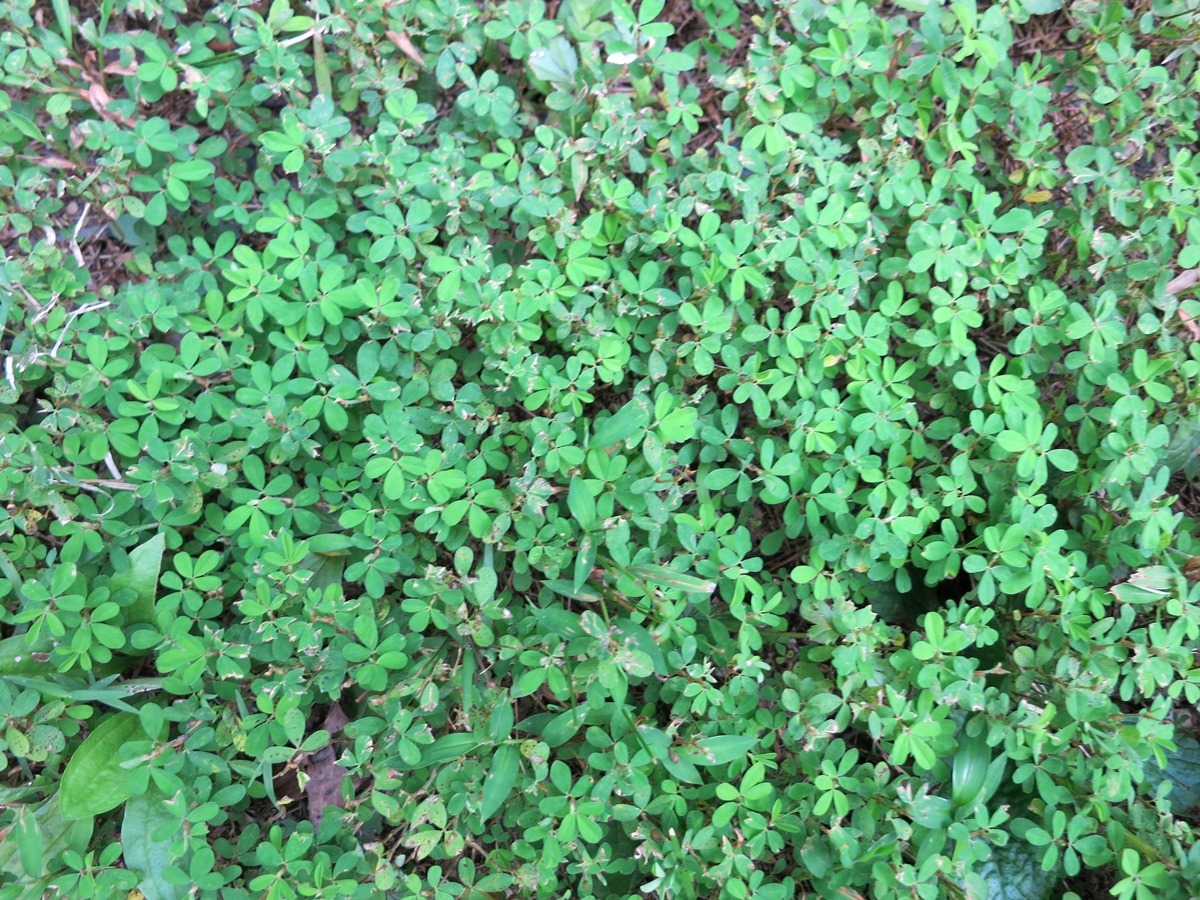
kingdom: Plantae
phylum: Tracheophyta
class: Magnoliopsida
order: Fabales
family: Fabaceae
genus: Kummerowia
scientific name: Kummerowia striata
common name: Japanese clover
